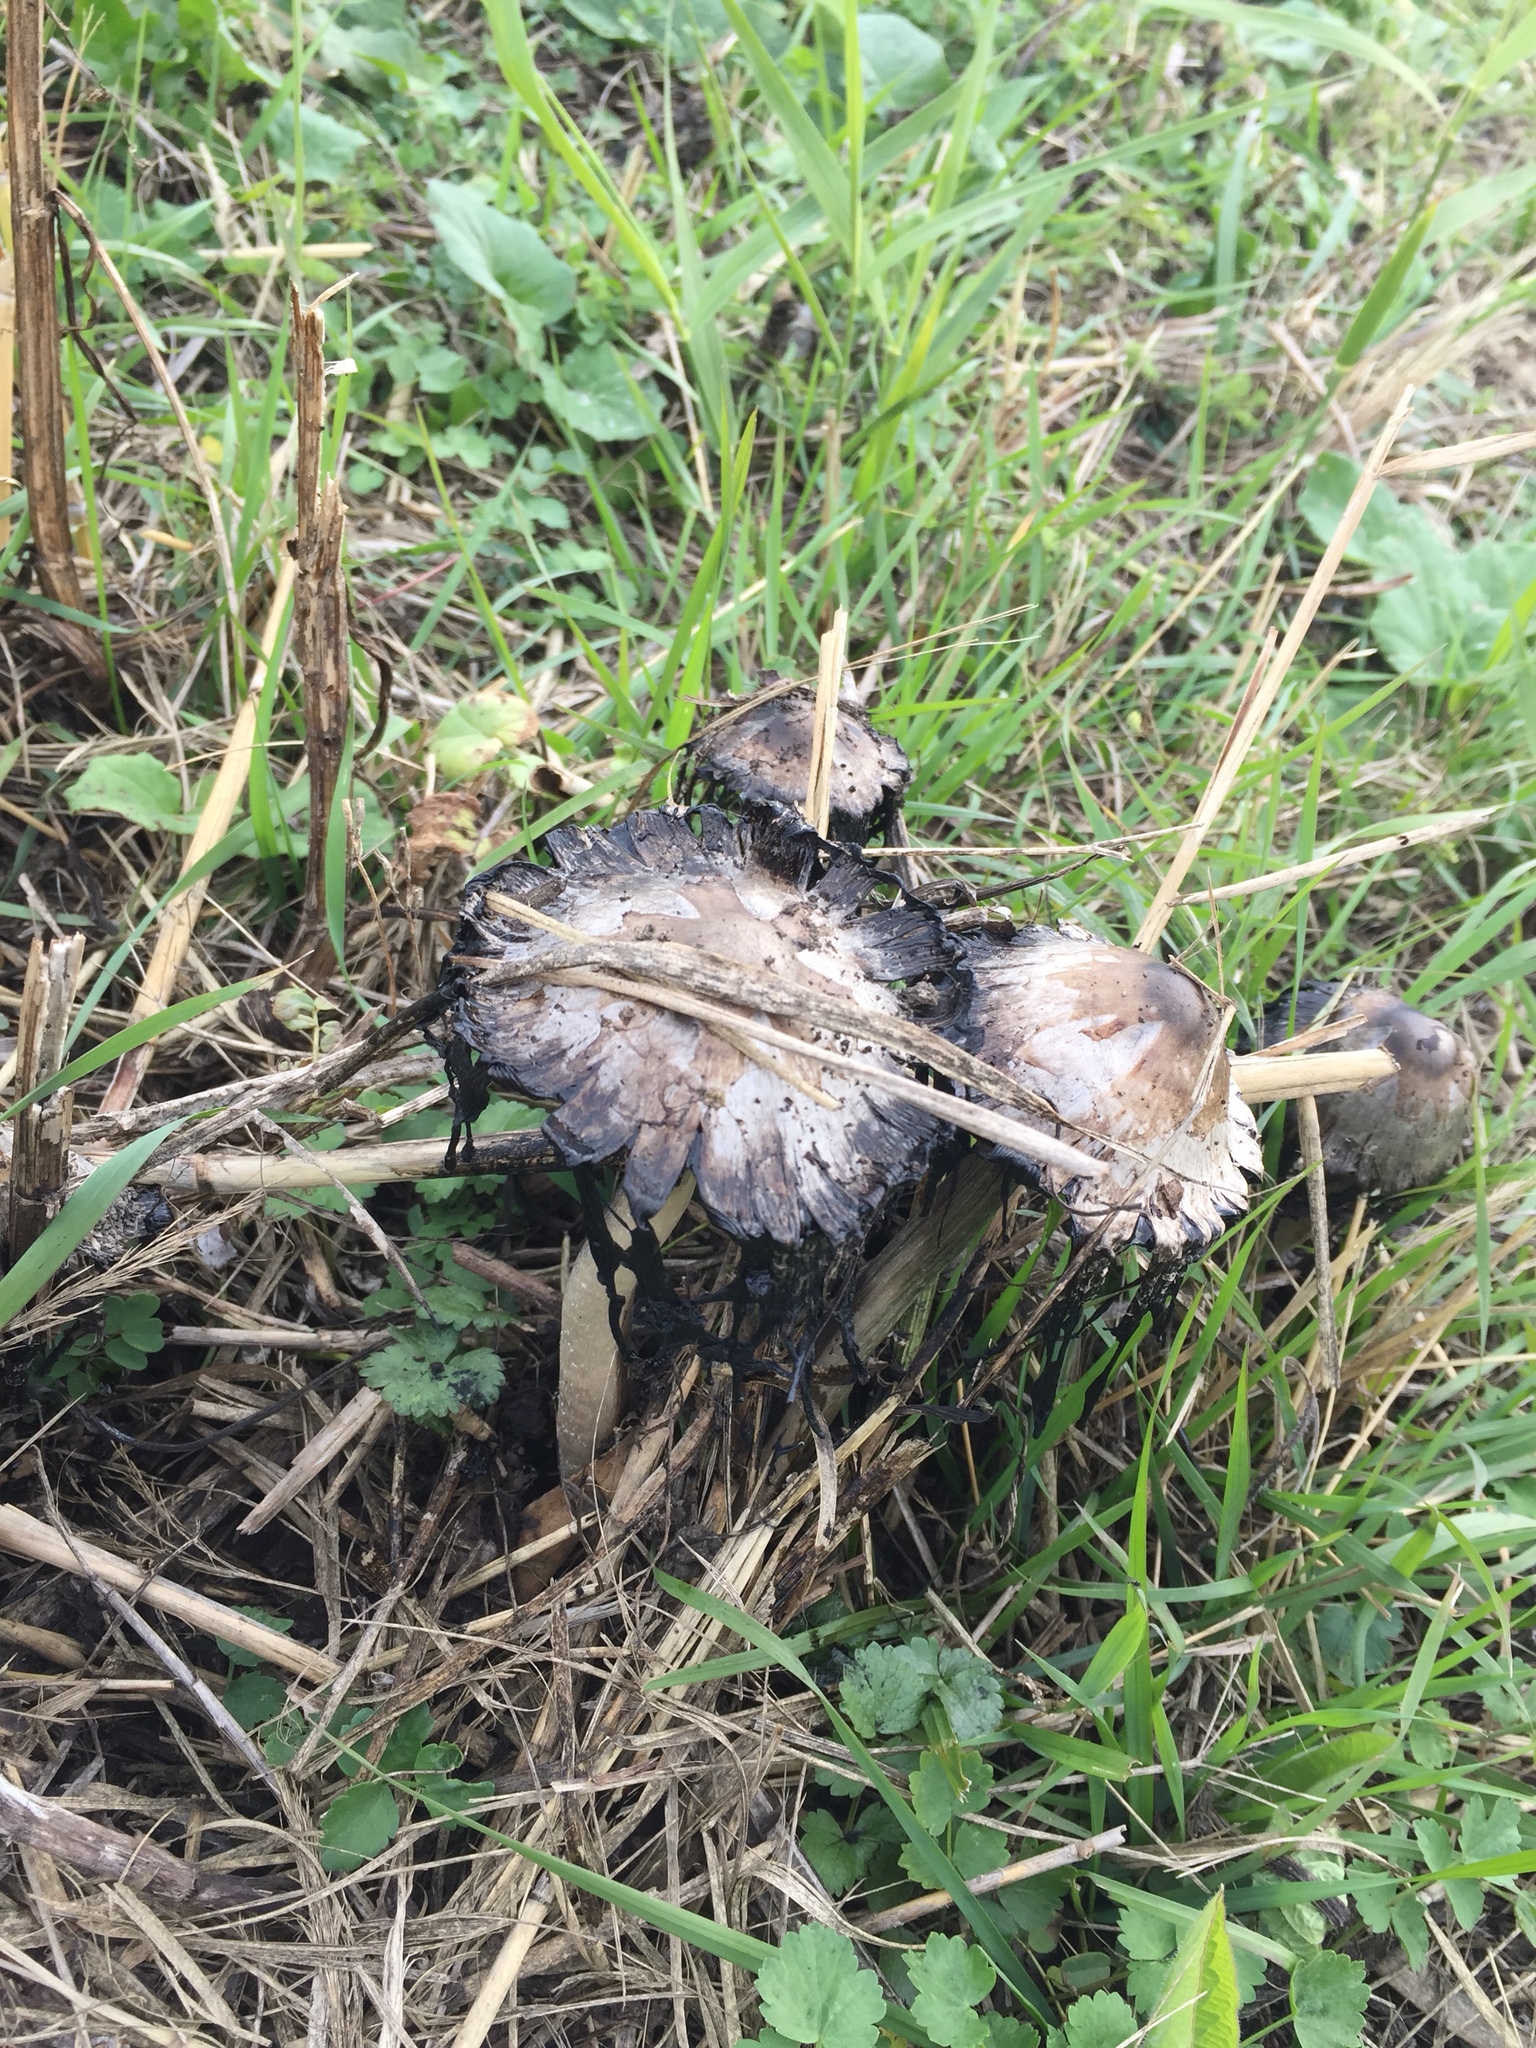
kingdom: Fungi
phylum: Basidiomycota
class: Agaricomycetes
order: Agaricales
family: Agaricaceae
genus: Coprinus
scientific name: Coprinus comatus
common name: Lawyer's wig
